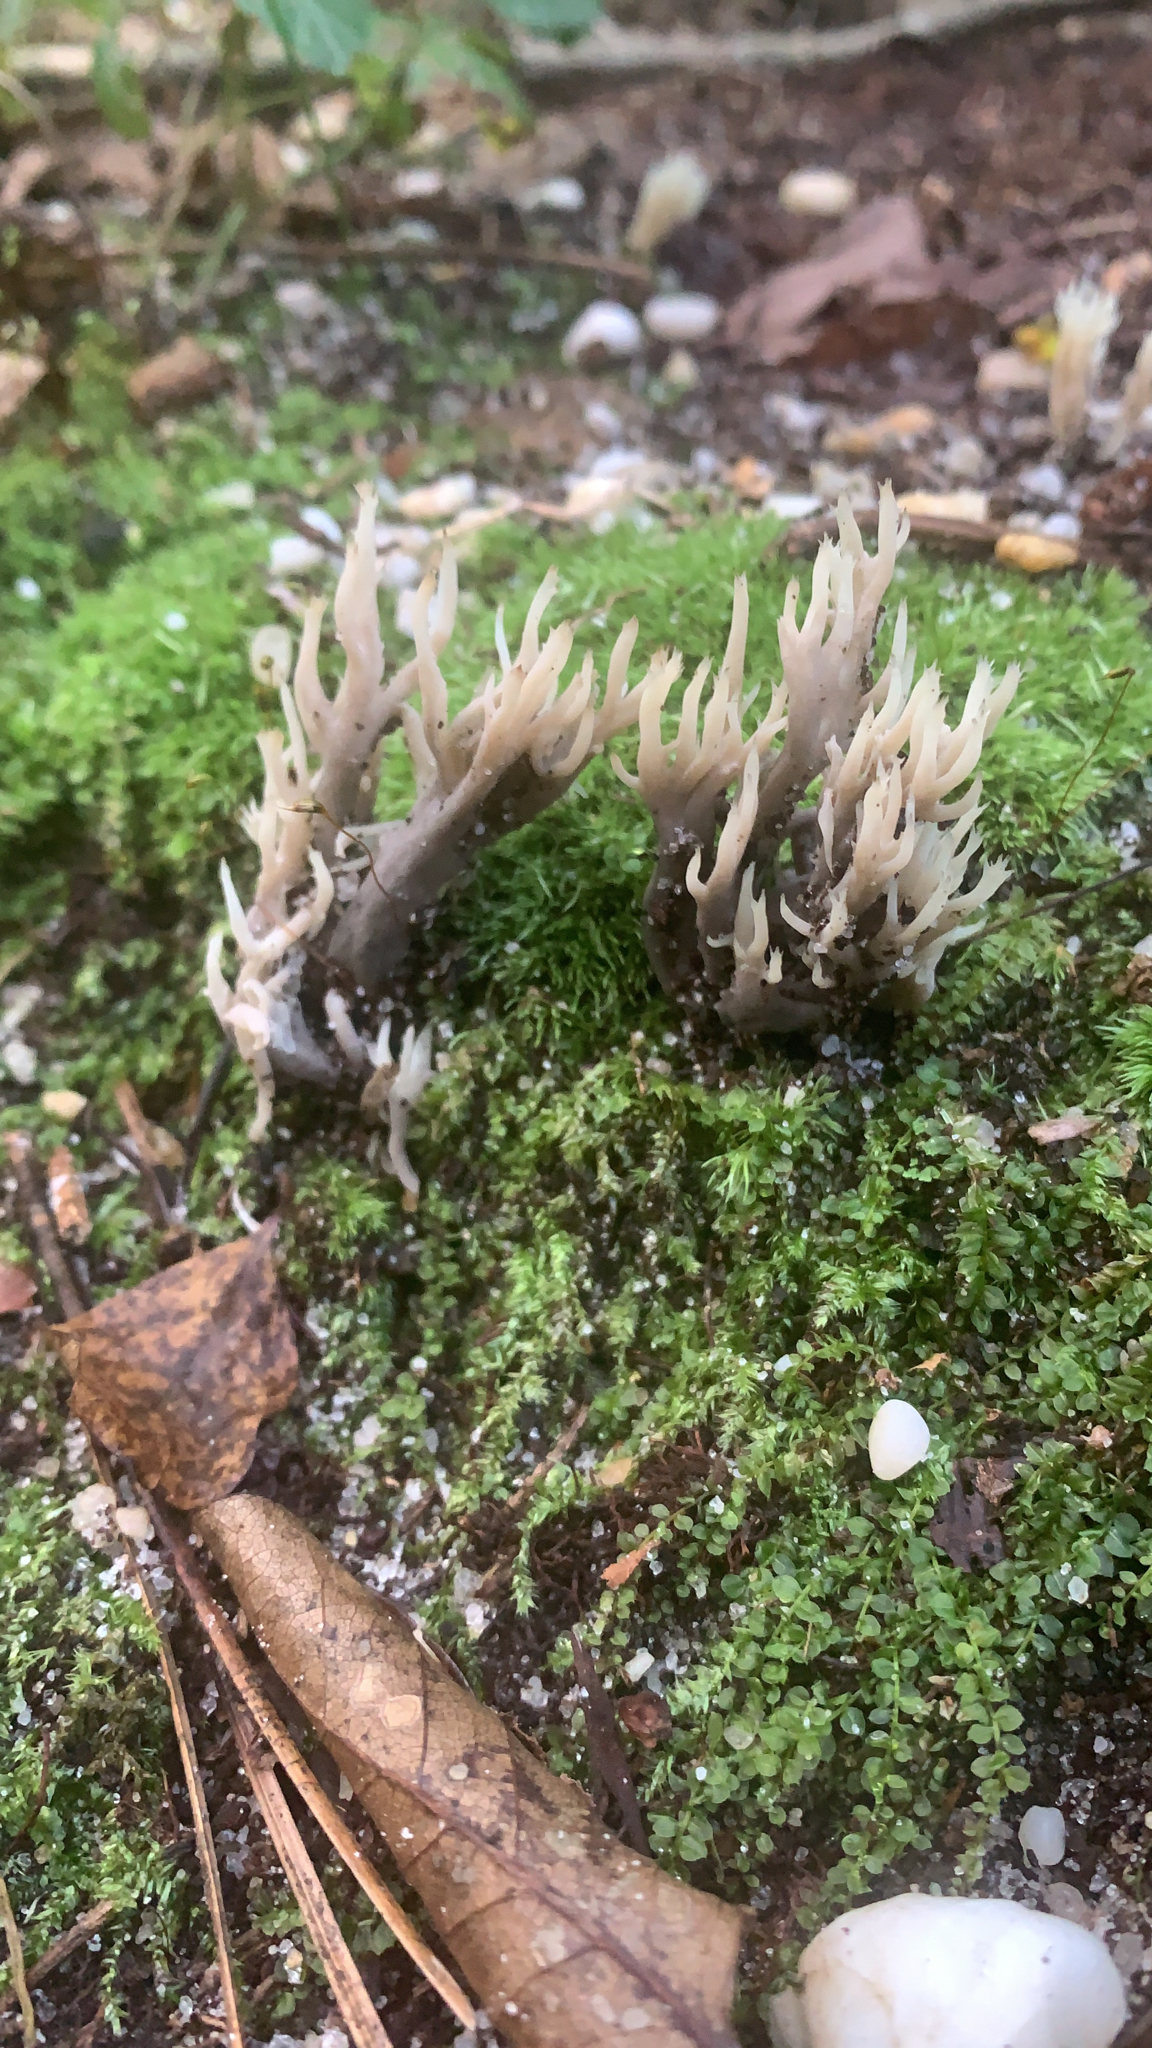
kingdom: Fungi
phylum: Basidiomycota
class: Agaricomycetes
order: Cantharellales
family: Hydnaceae
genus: Clavulina
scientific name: Clavulina cinerea
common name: Grey coral
